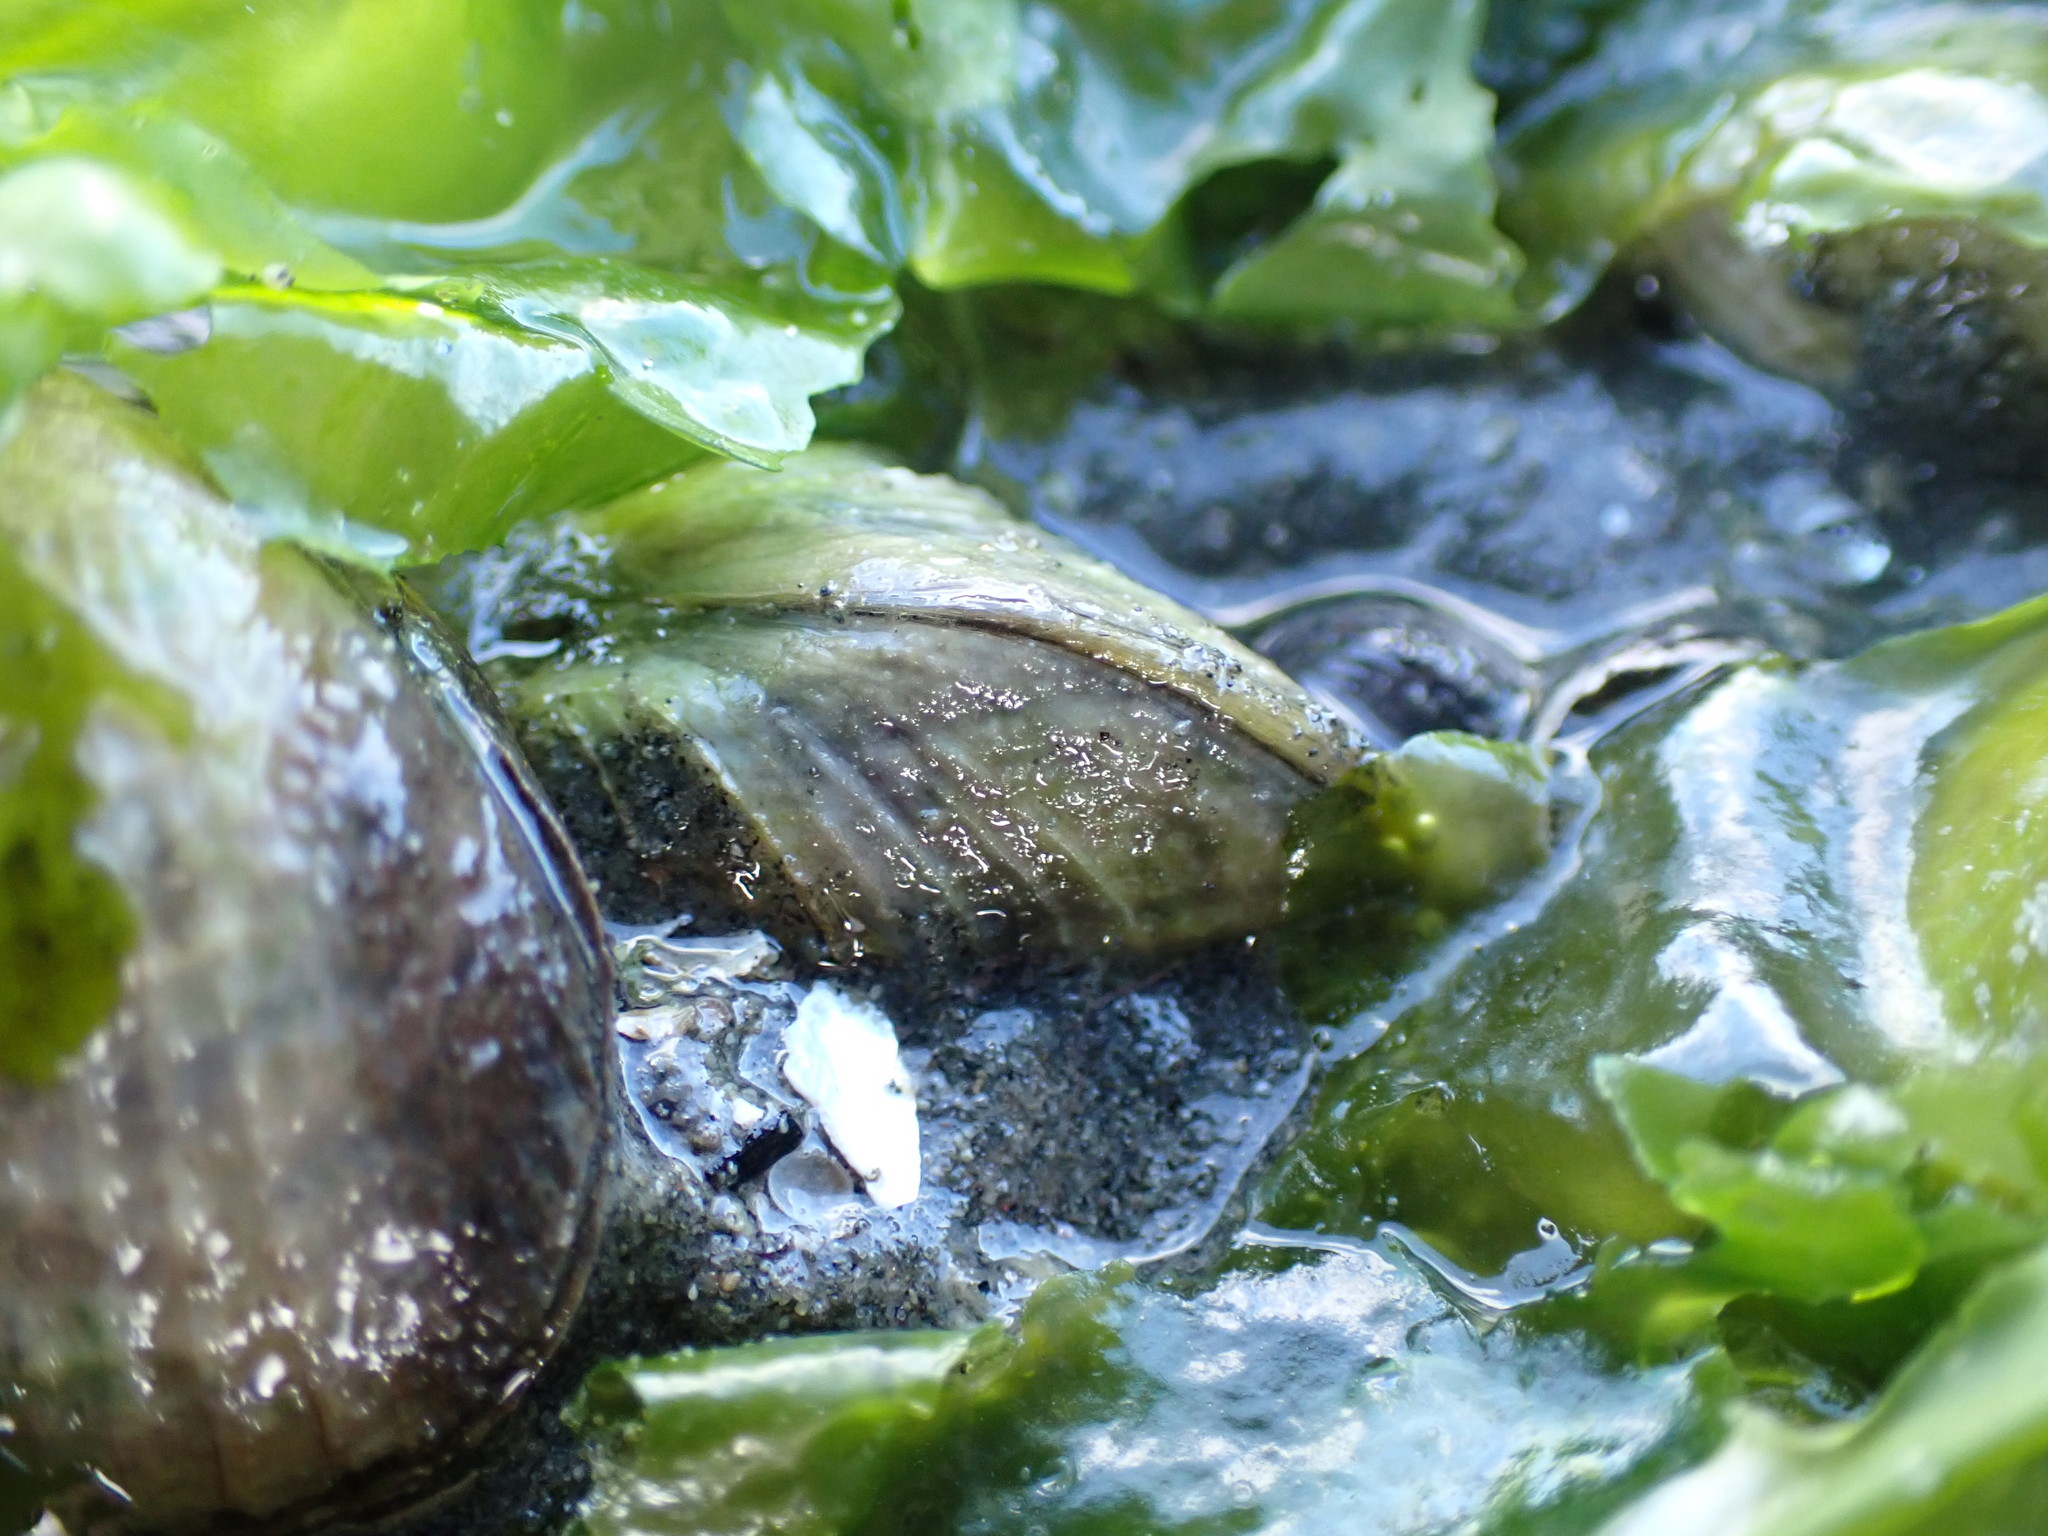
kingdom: Animalia
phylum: Mollusca
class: Bivalvia
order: Venerida
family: Veneridae
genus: Austrovenus
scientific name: Austrovenus stutchburyi
